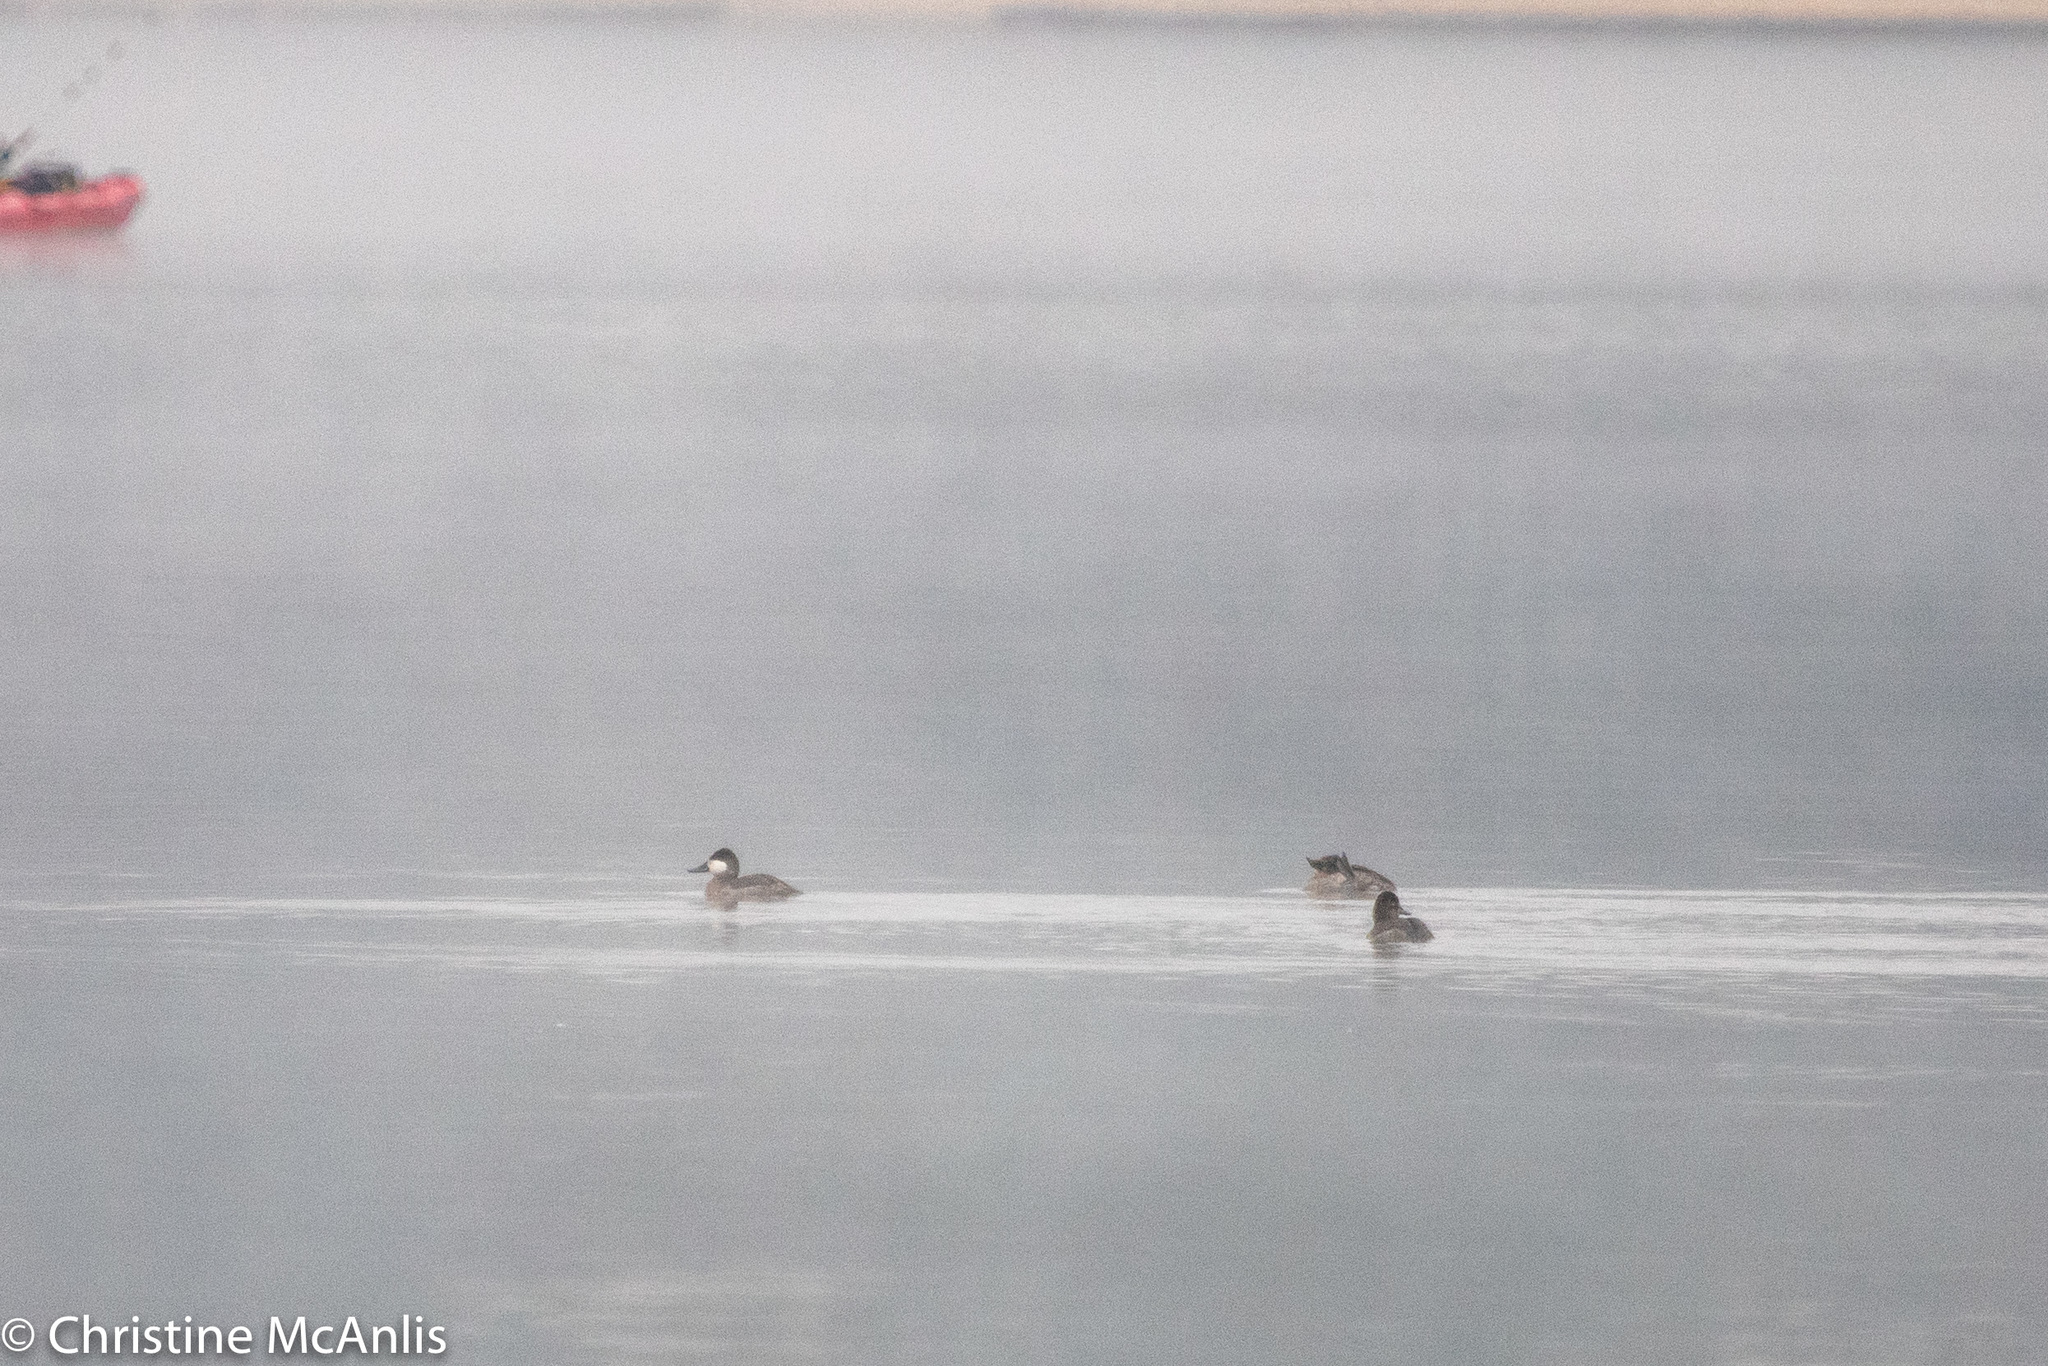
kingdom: Animalia
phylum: Chordata
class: Aves
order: Anseriformes
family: Anatidae
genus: Oxyura
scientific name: Oxyura jamaicensis
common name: Ruddy duck
